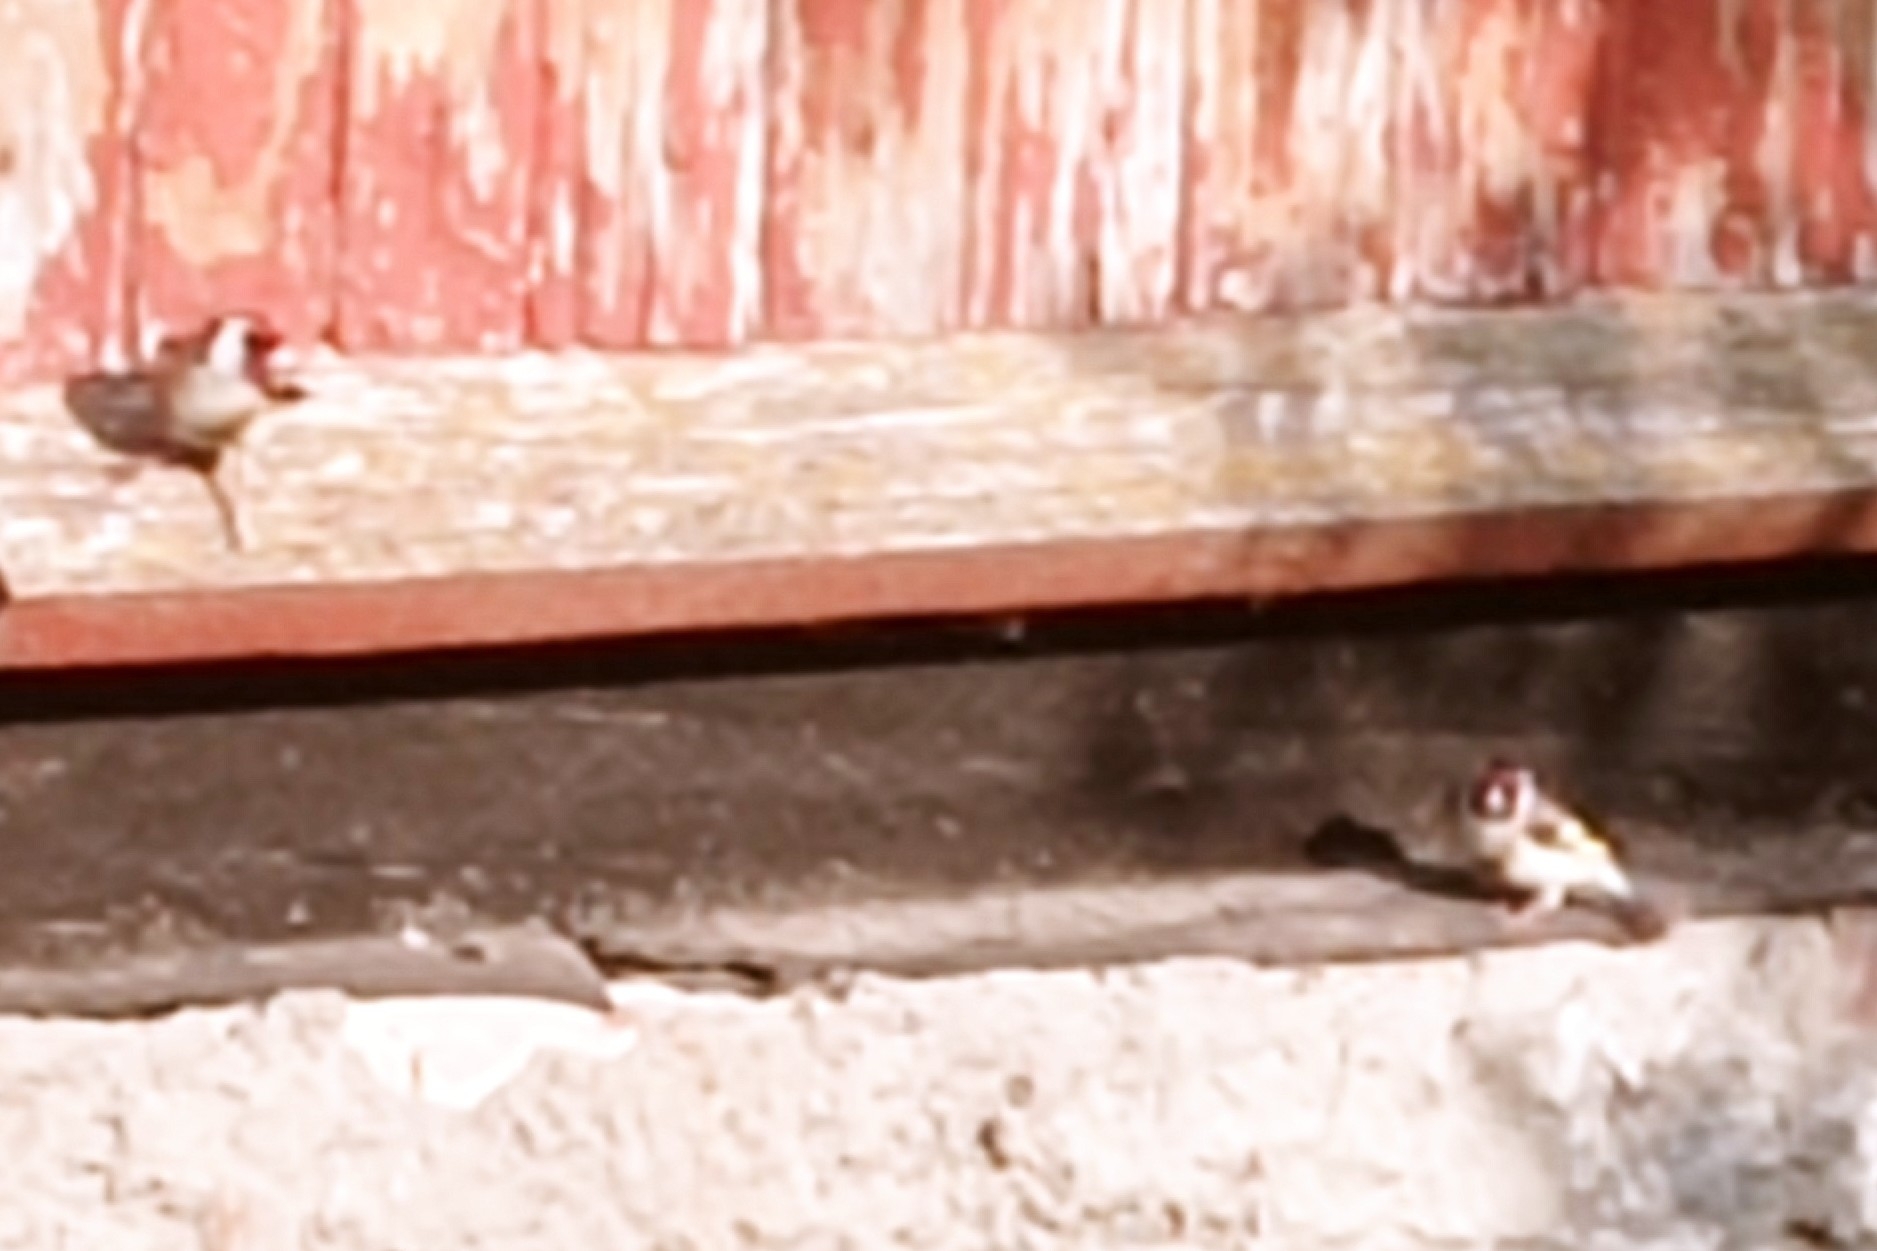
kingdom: Animalia
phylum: Chordata
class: Aves
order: Passeriformes
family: Fringillidae
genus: Carduelis
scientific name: Carduelis carduelis
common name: European goldfinch
